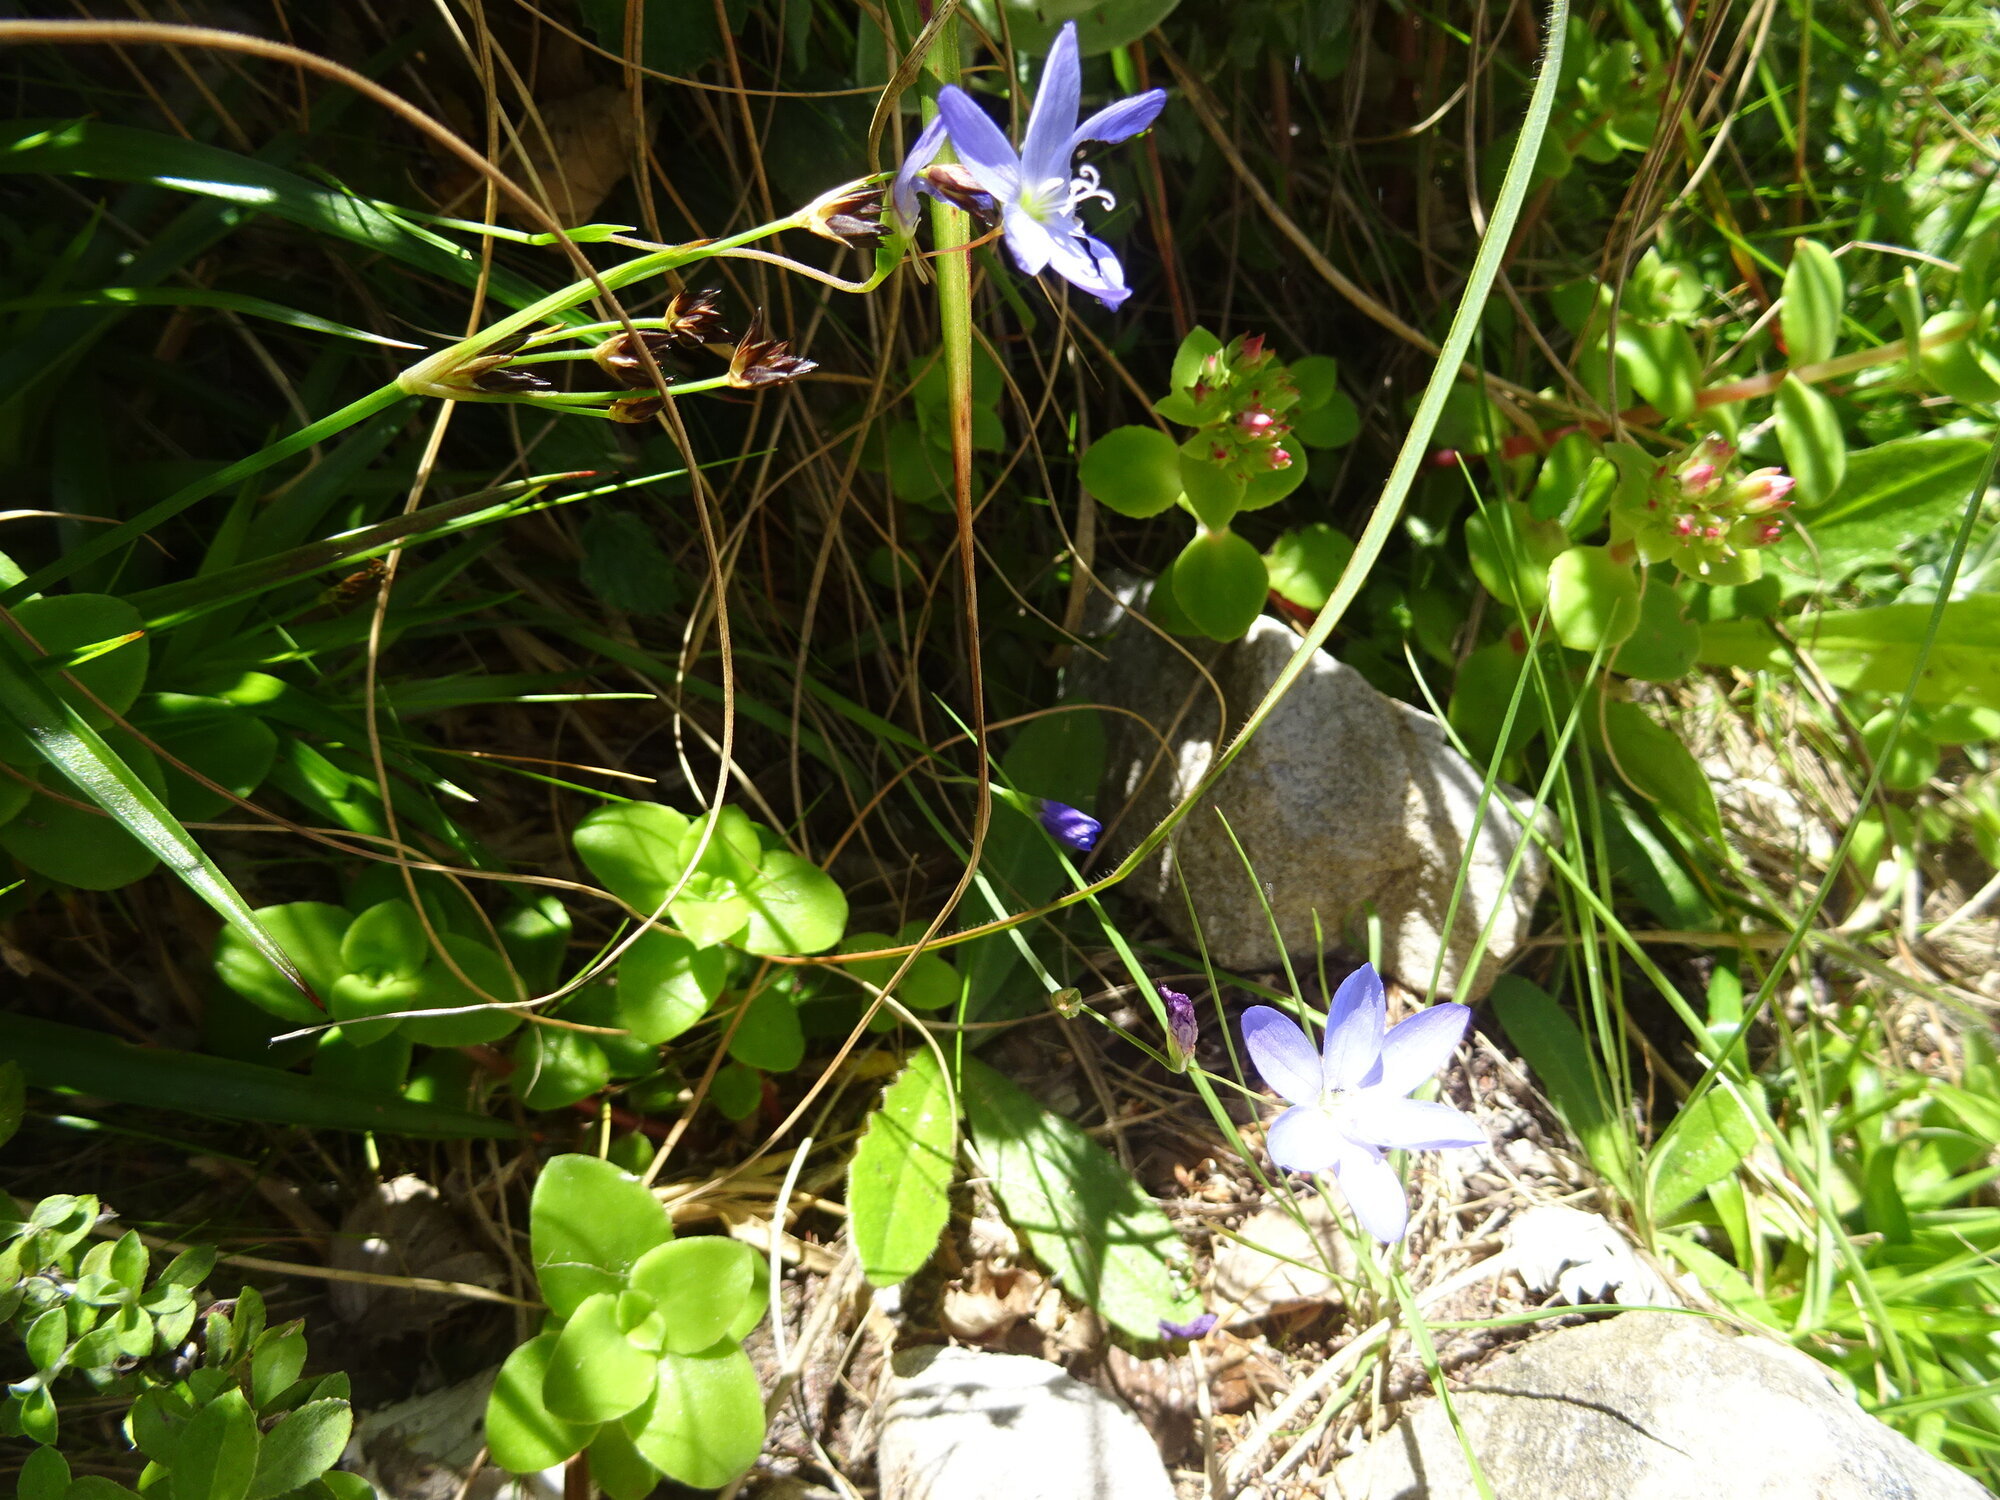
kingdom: Plantae
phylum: Tracheophyta
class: Liliopsida
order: Asparagales
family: Iridaceae
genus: Geissorhiza
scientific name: Geissorhiza aspera
